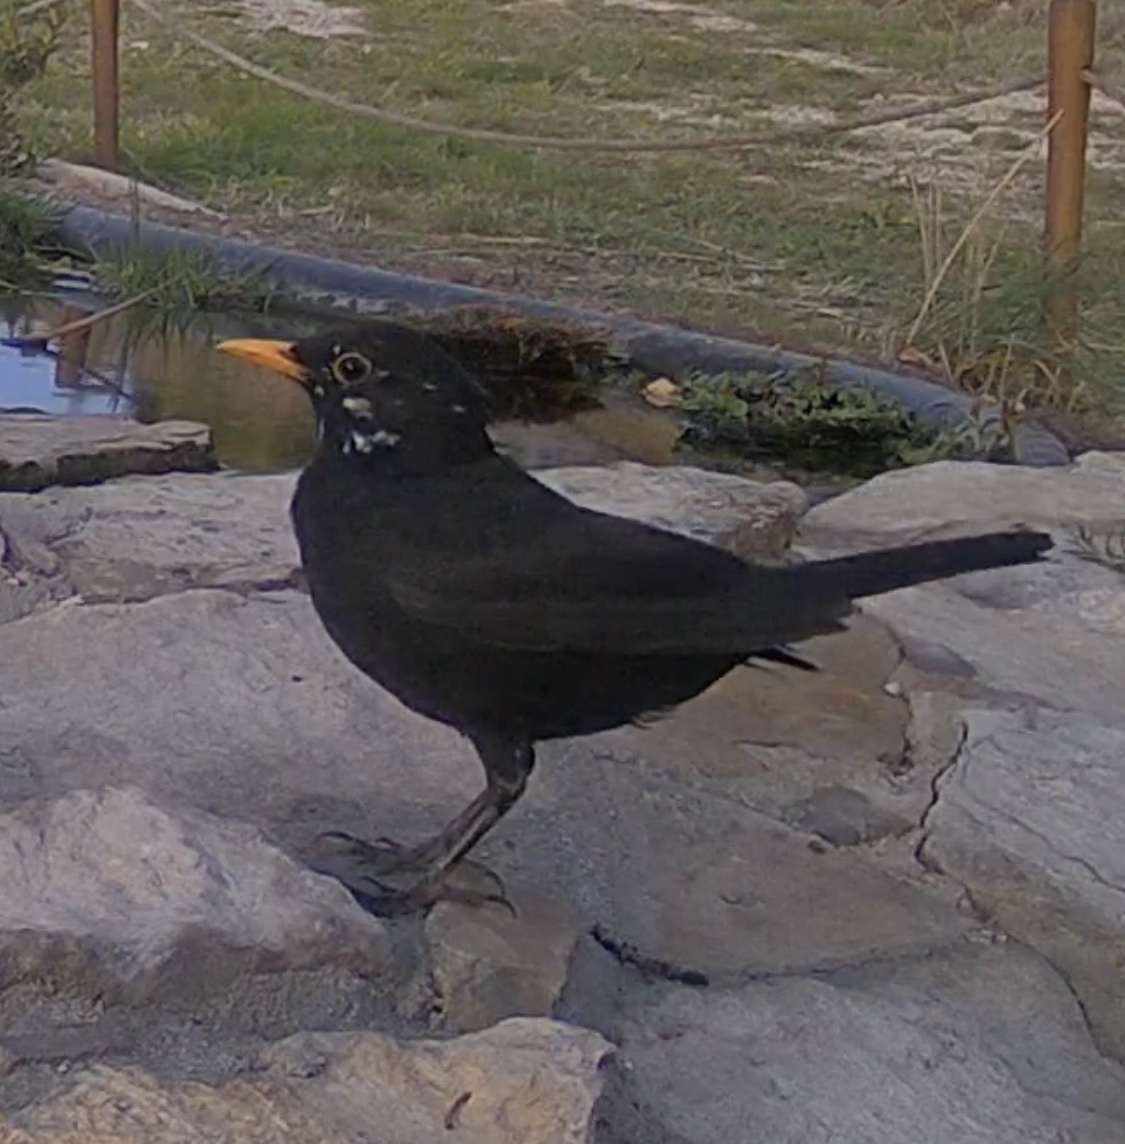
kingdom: Animalia
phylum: Chordata
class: Aves
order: Passeriformes
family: Turdidae
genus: Turdus
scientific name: Turdus merula
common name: Common blackbird
